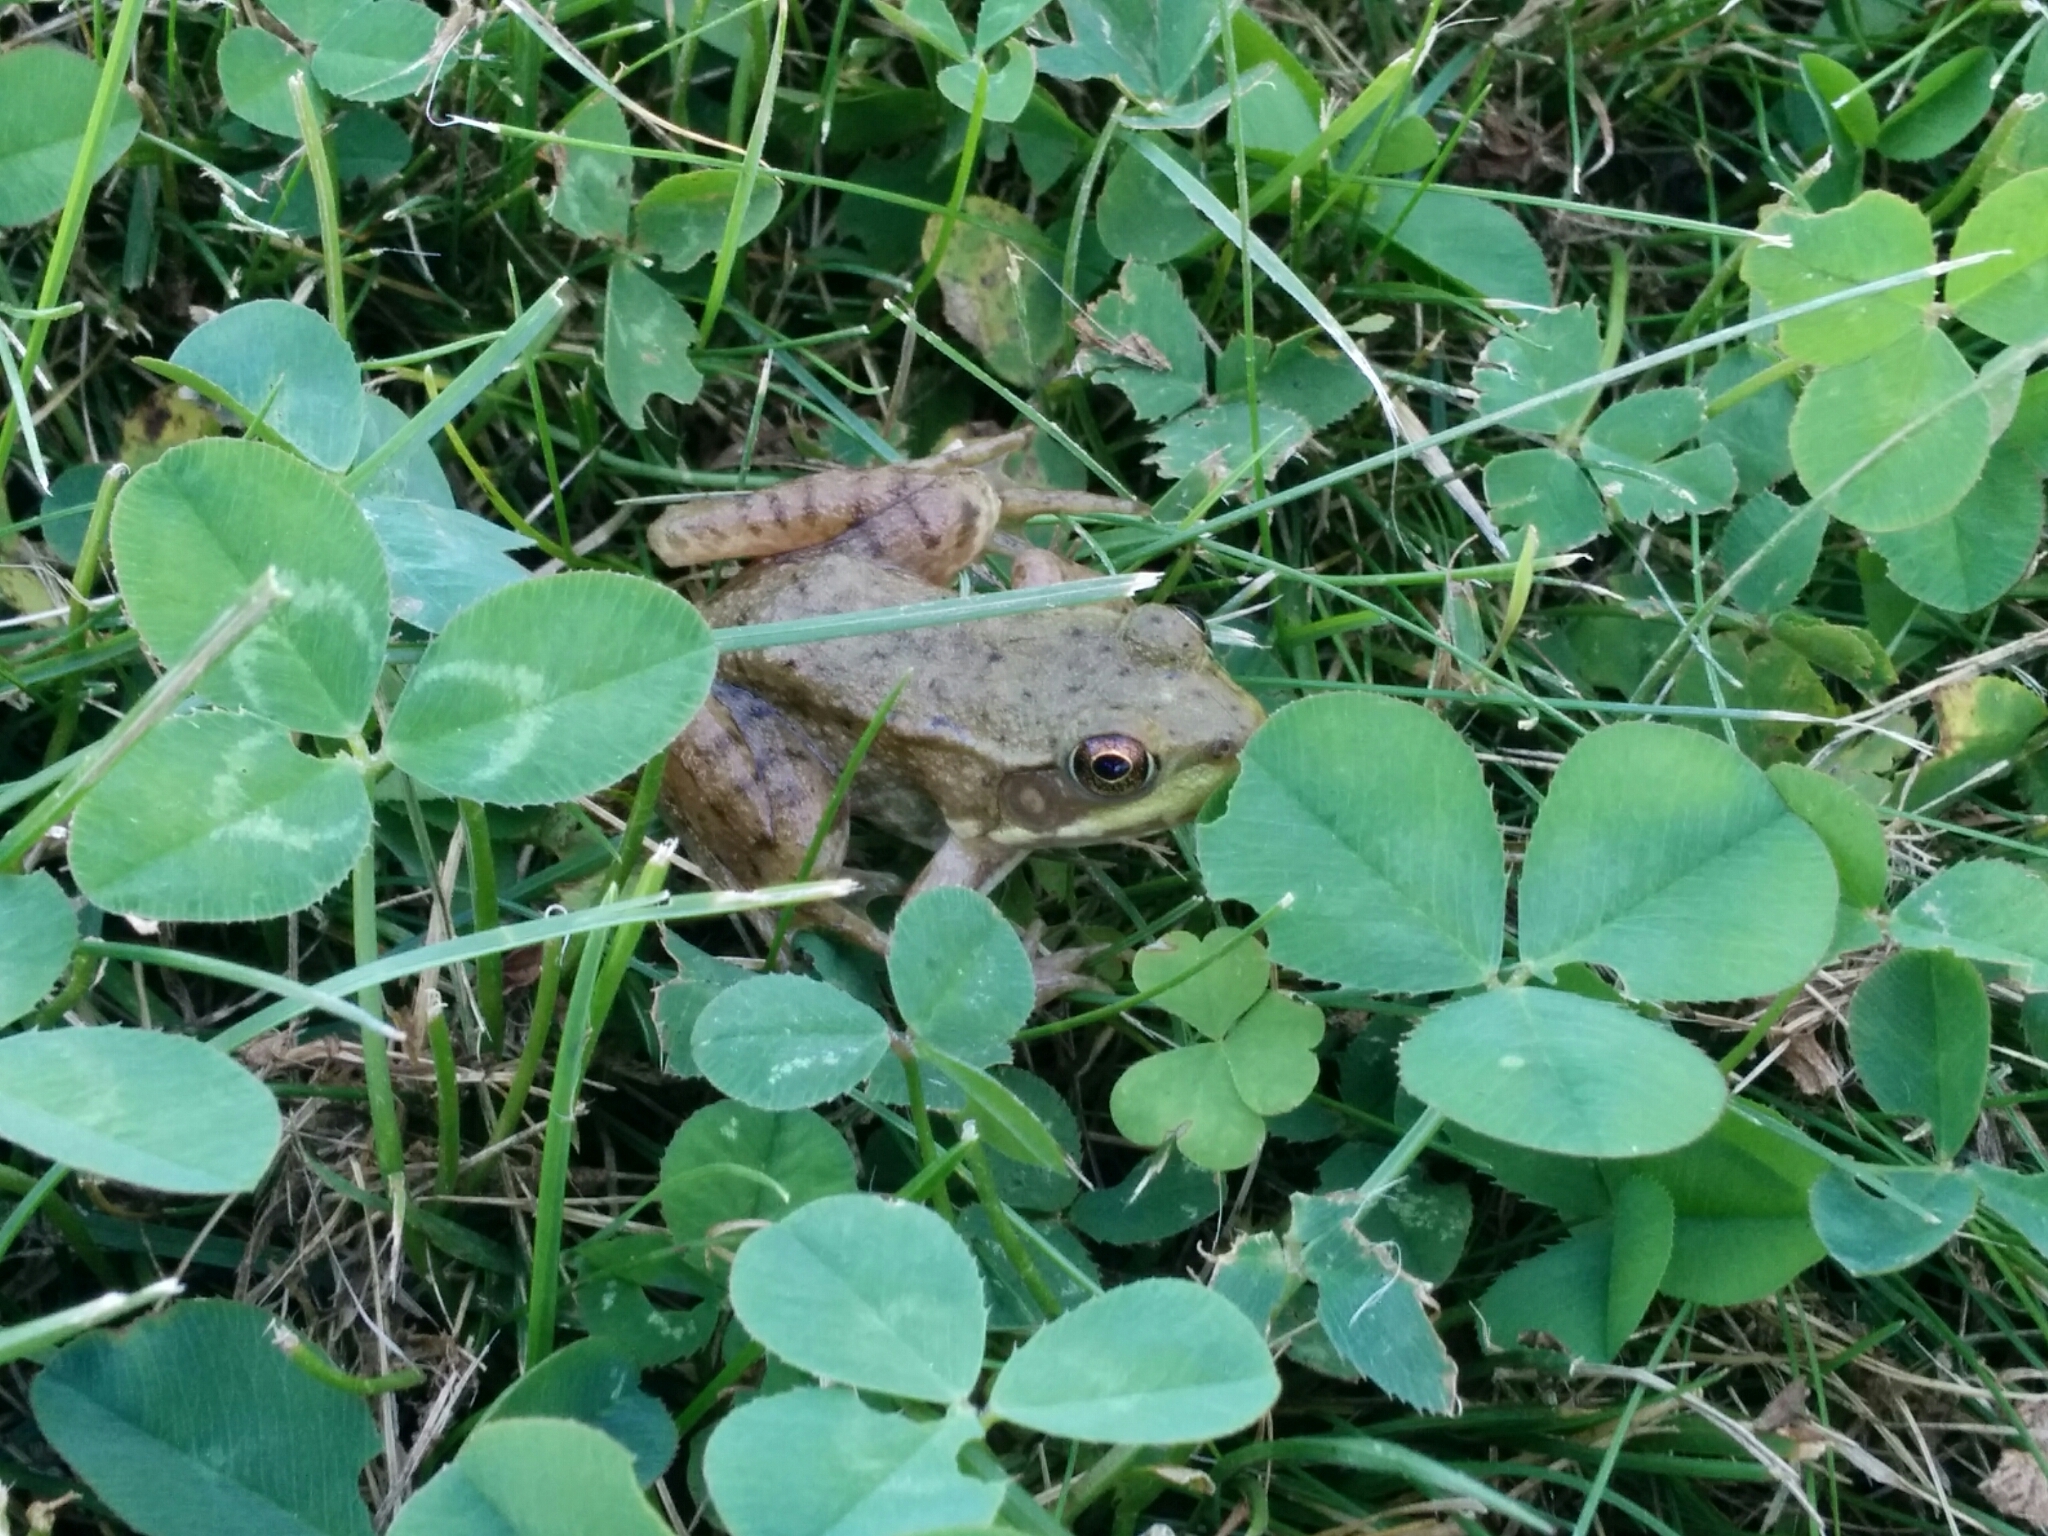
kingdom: Animalia
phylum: Chordata
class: Amphibia
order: Anura
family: Ranidae
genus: Lithobates
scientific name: Lithobates clamitans
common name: Green frog
